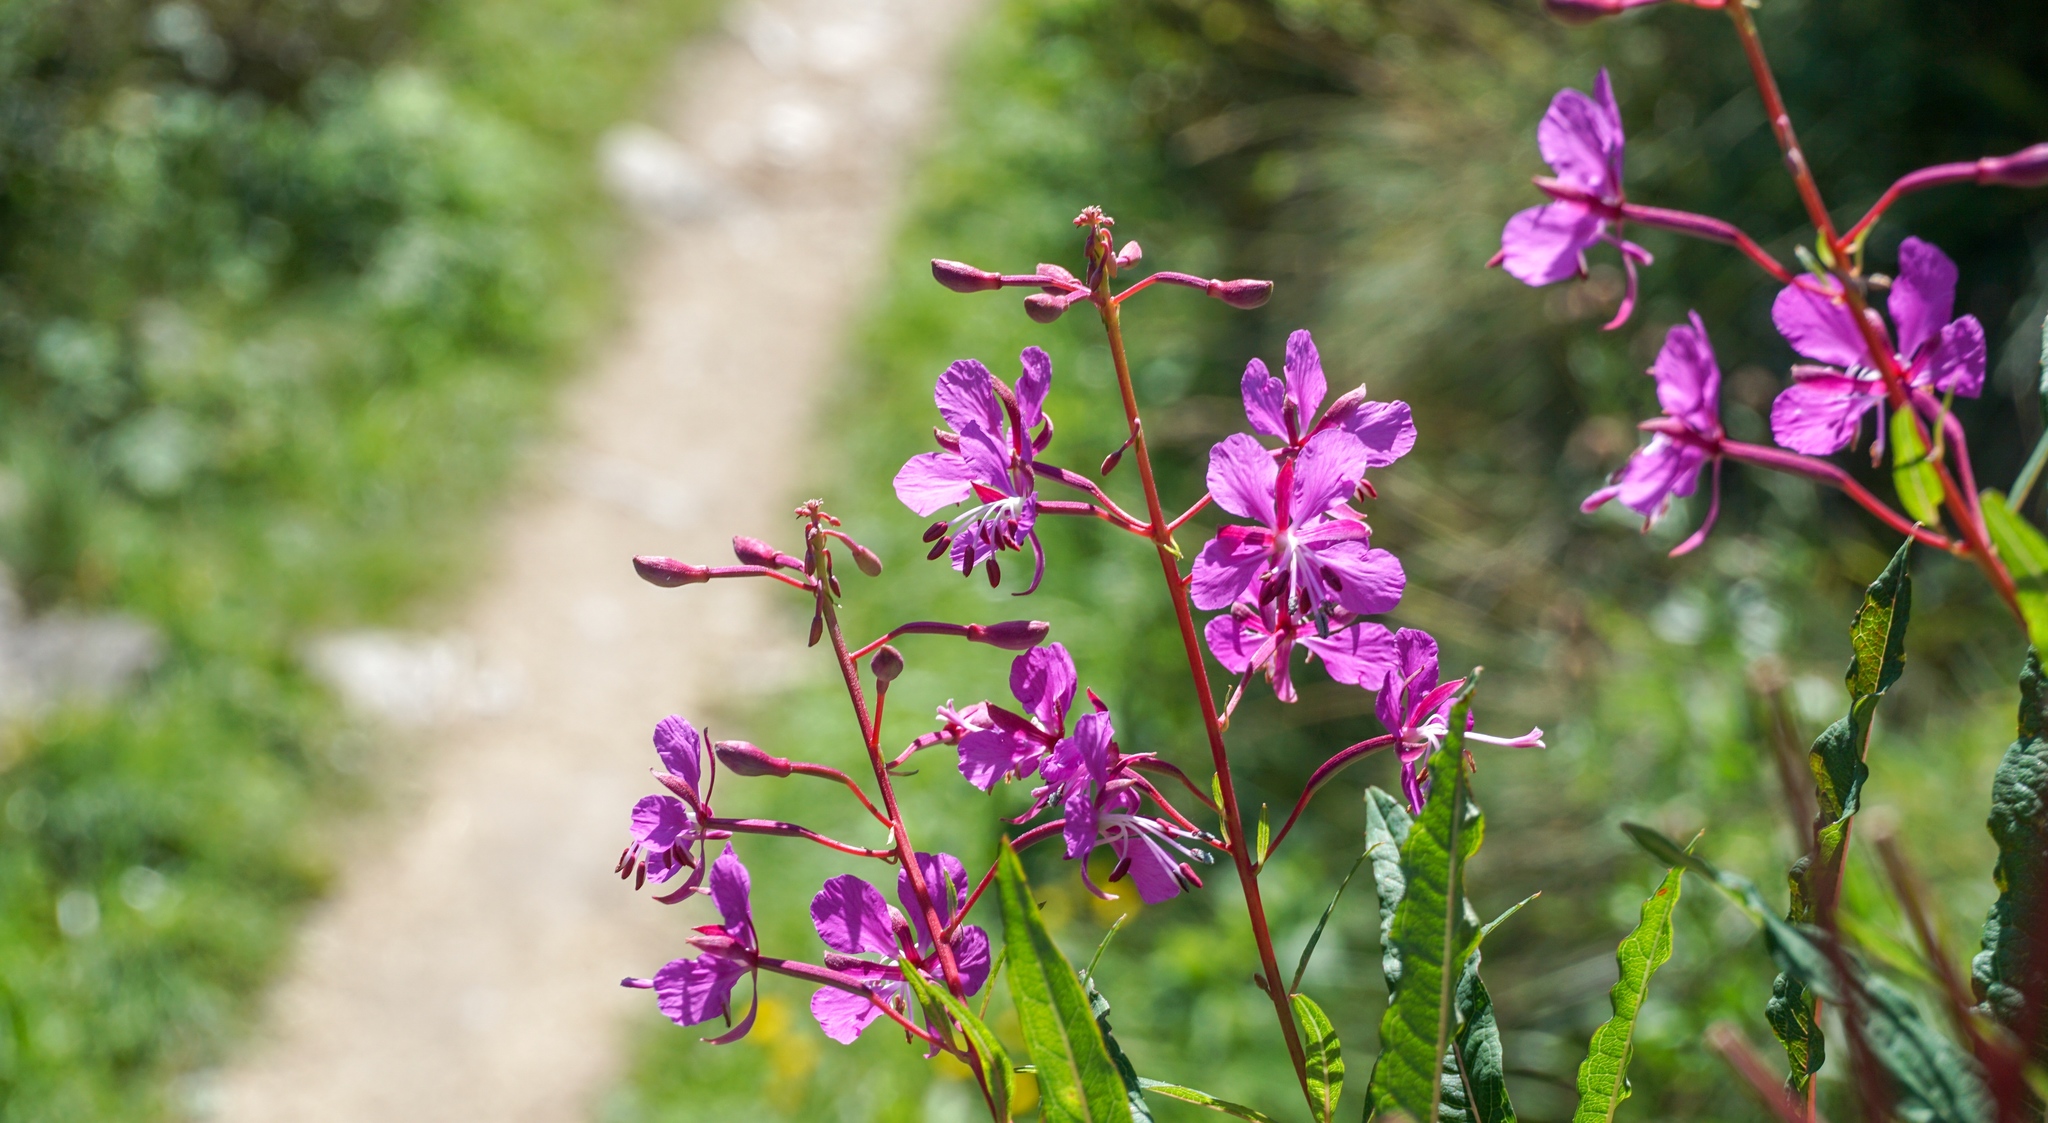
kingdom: Plantae
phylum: Tracheophyta
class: Magnoliopsida
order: Myrtales
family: Onagraceae
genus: Chamaenerion
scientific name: Chamaenerion angustifolium
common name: Fireweed
